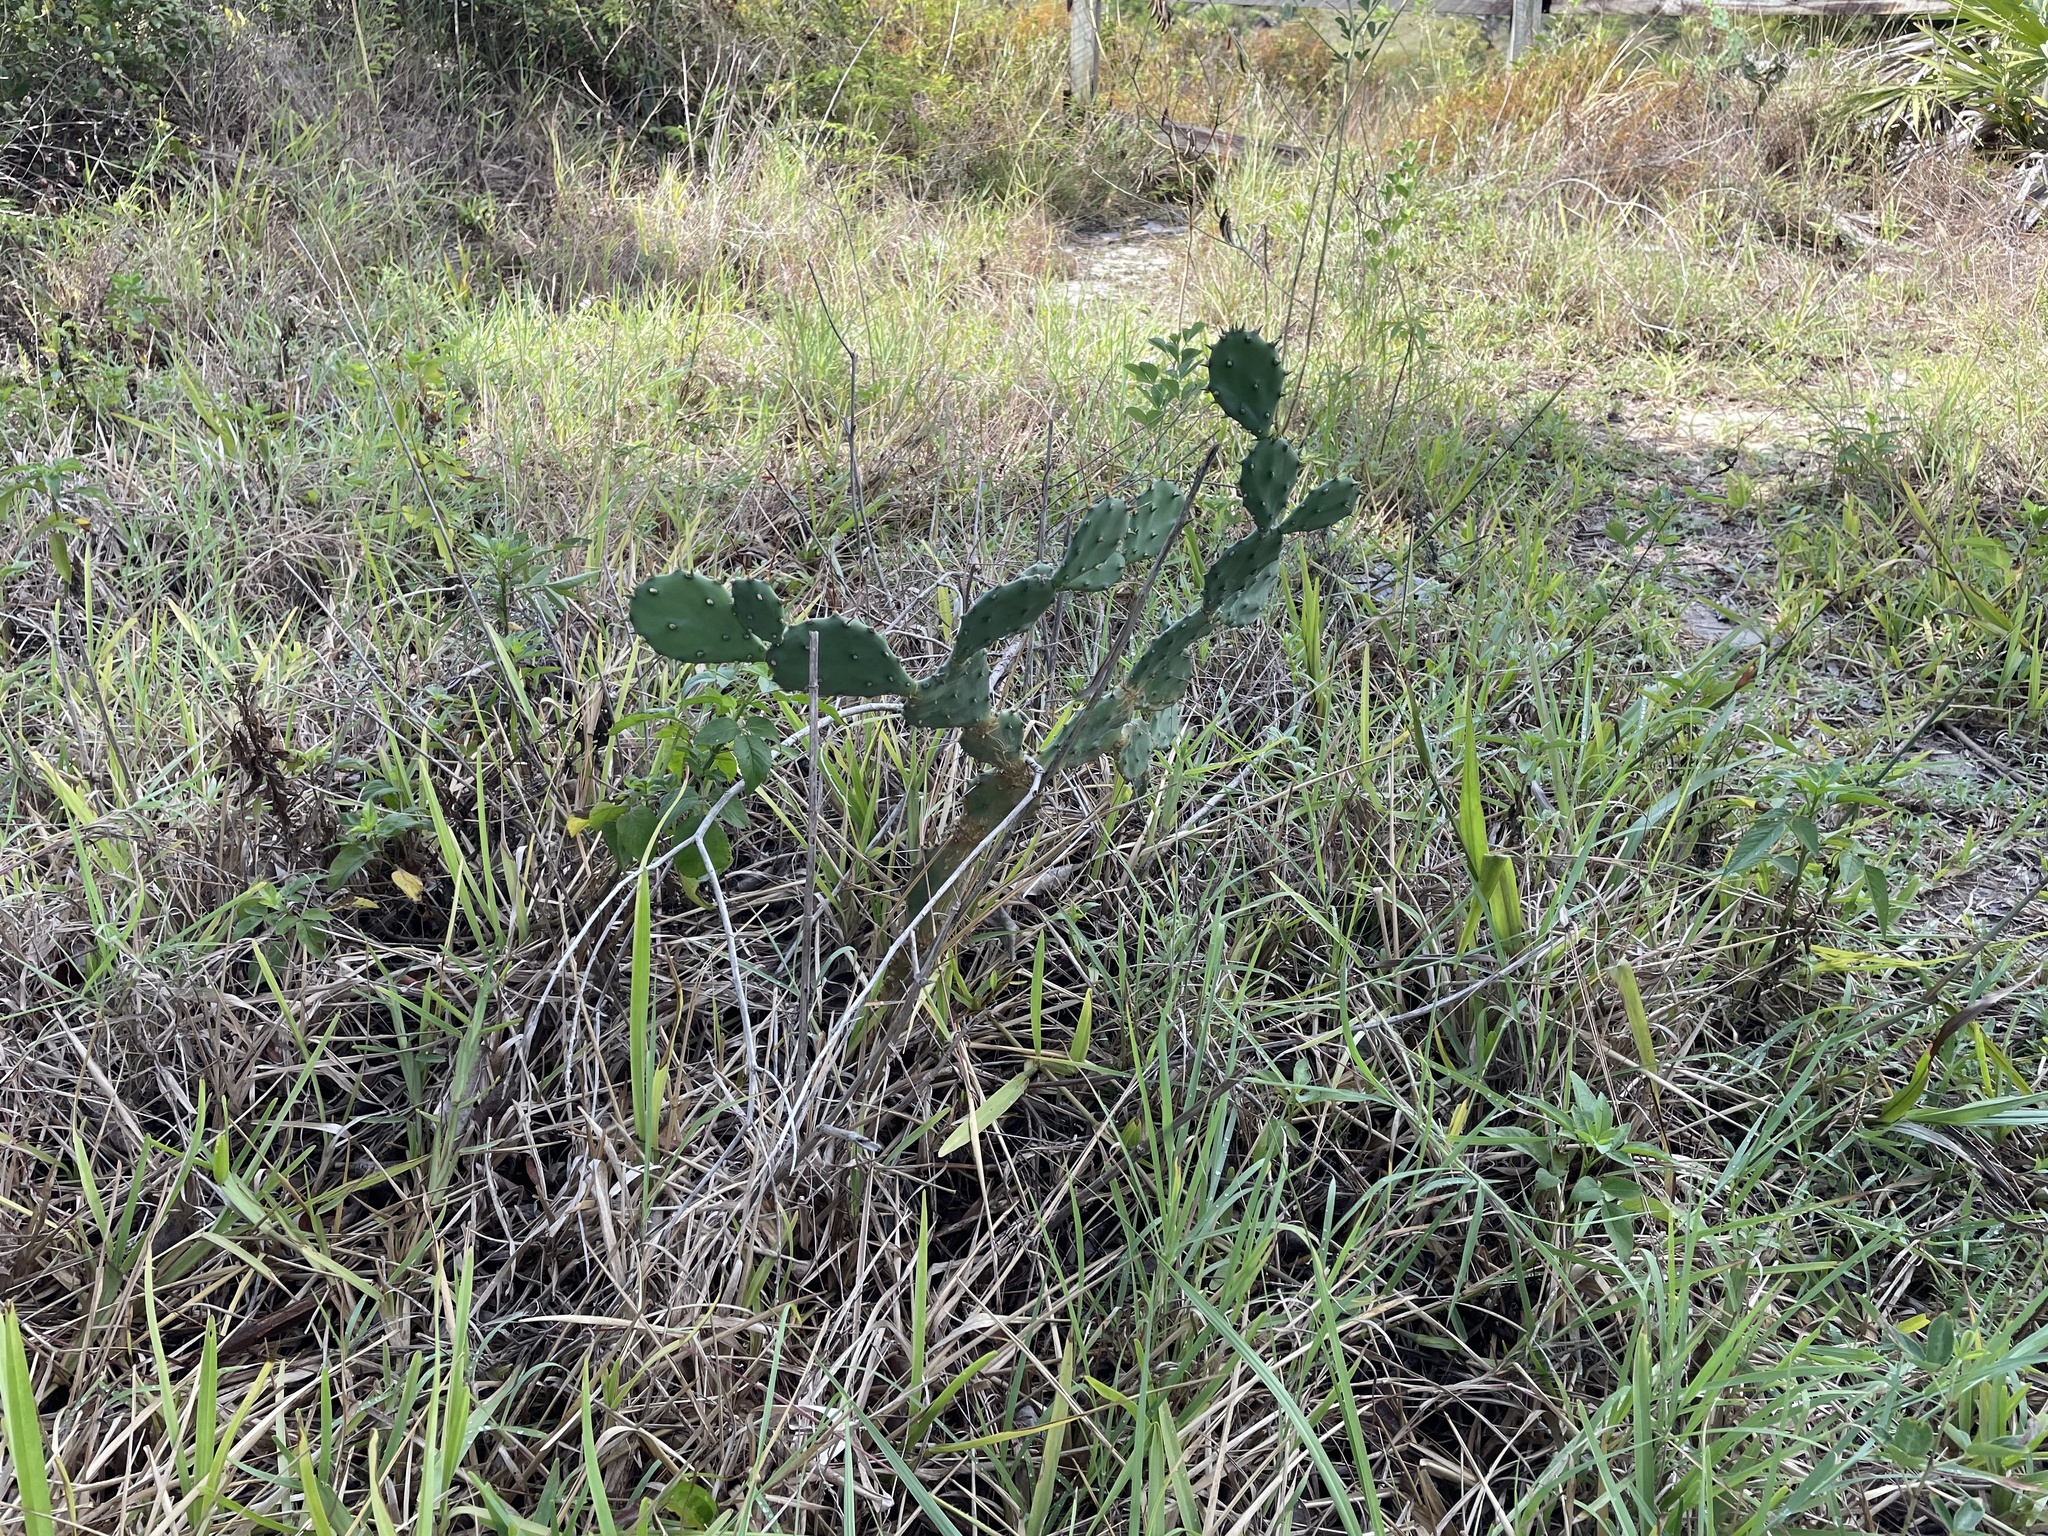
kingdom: Plantae
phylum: Tracheophyta
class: Magnoliopsida
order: Caryophyllales
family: Cactaceae
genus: Opuntia
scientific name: Opuntia austrina
